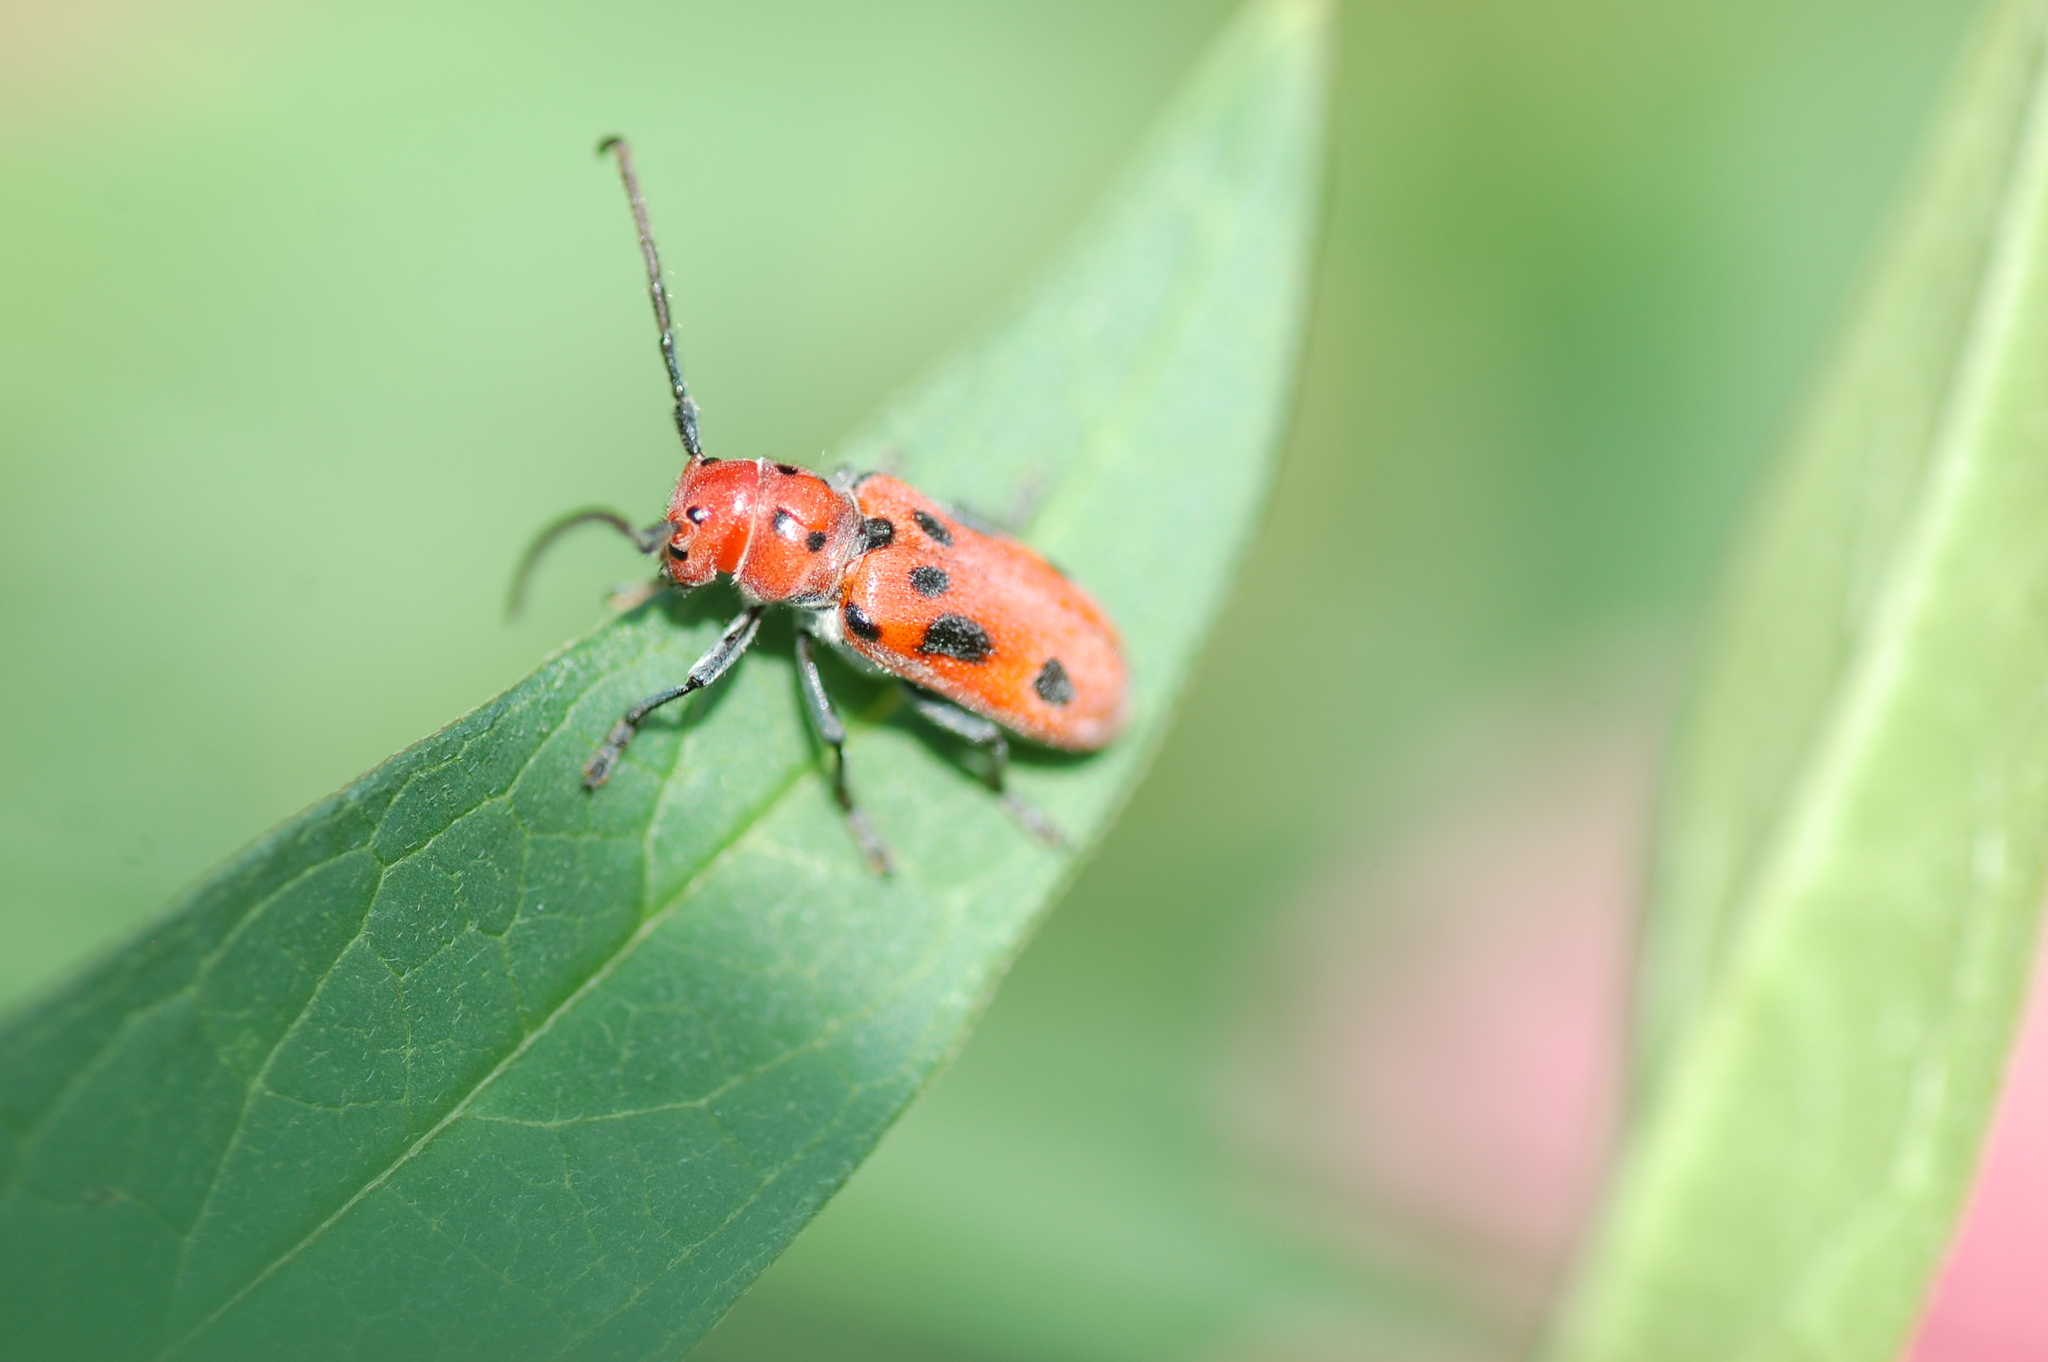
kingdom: Animalia
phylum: Arthropoda
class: Insecta
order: Coleoptera
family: Cerambycidae
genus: Tetraopes
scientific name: Tetraopes tetrophthalmus
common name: Red milkweed beetle
